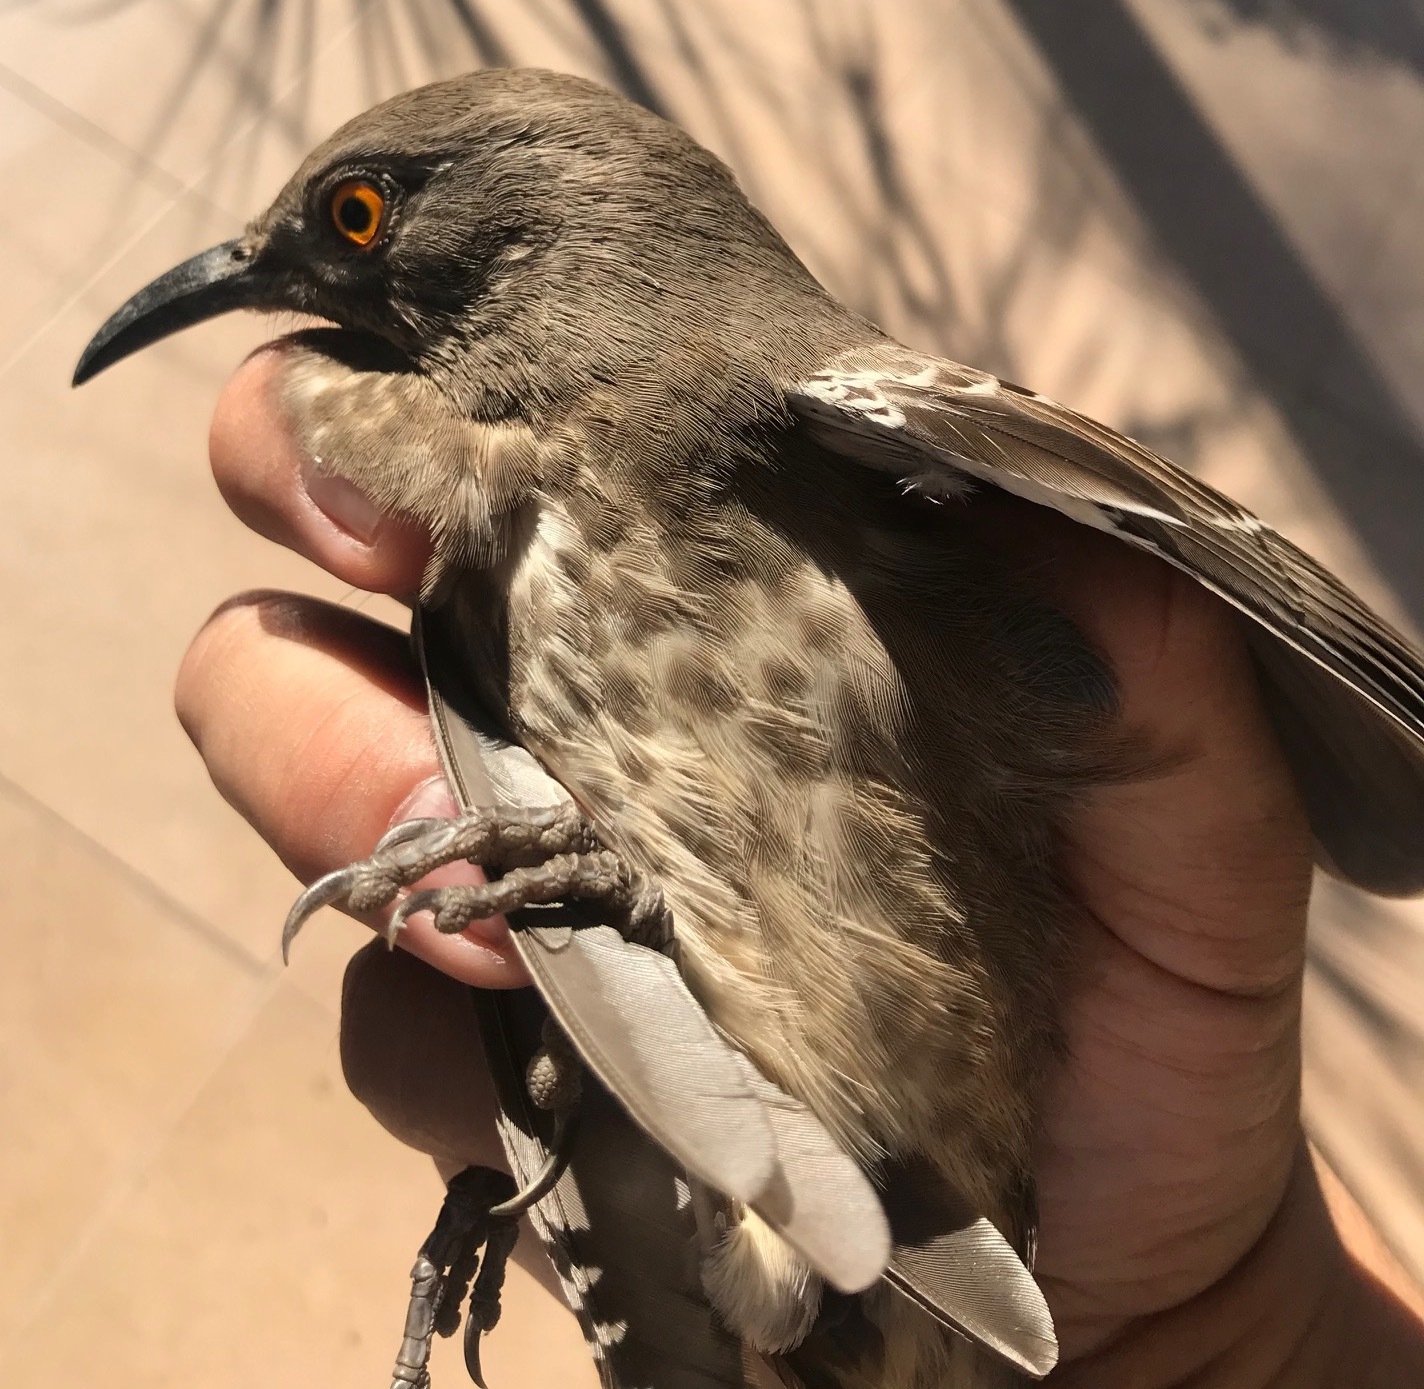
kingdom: Animalia
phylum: Chordata
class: Aves
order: Passeriformes
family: Mimidae
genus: Toxostoma
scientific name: Toxostoma curvirostre
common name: Curve-billed thrasher
